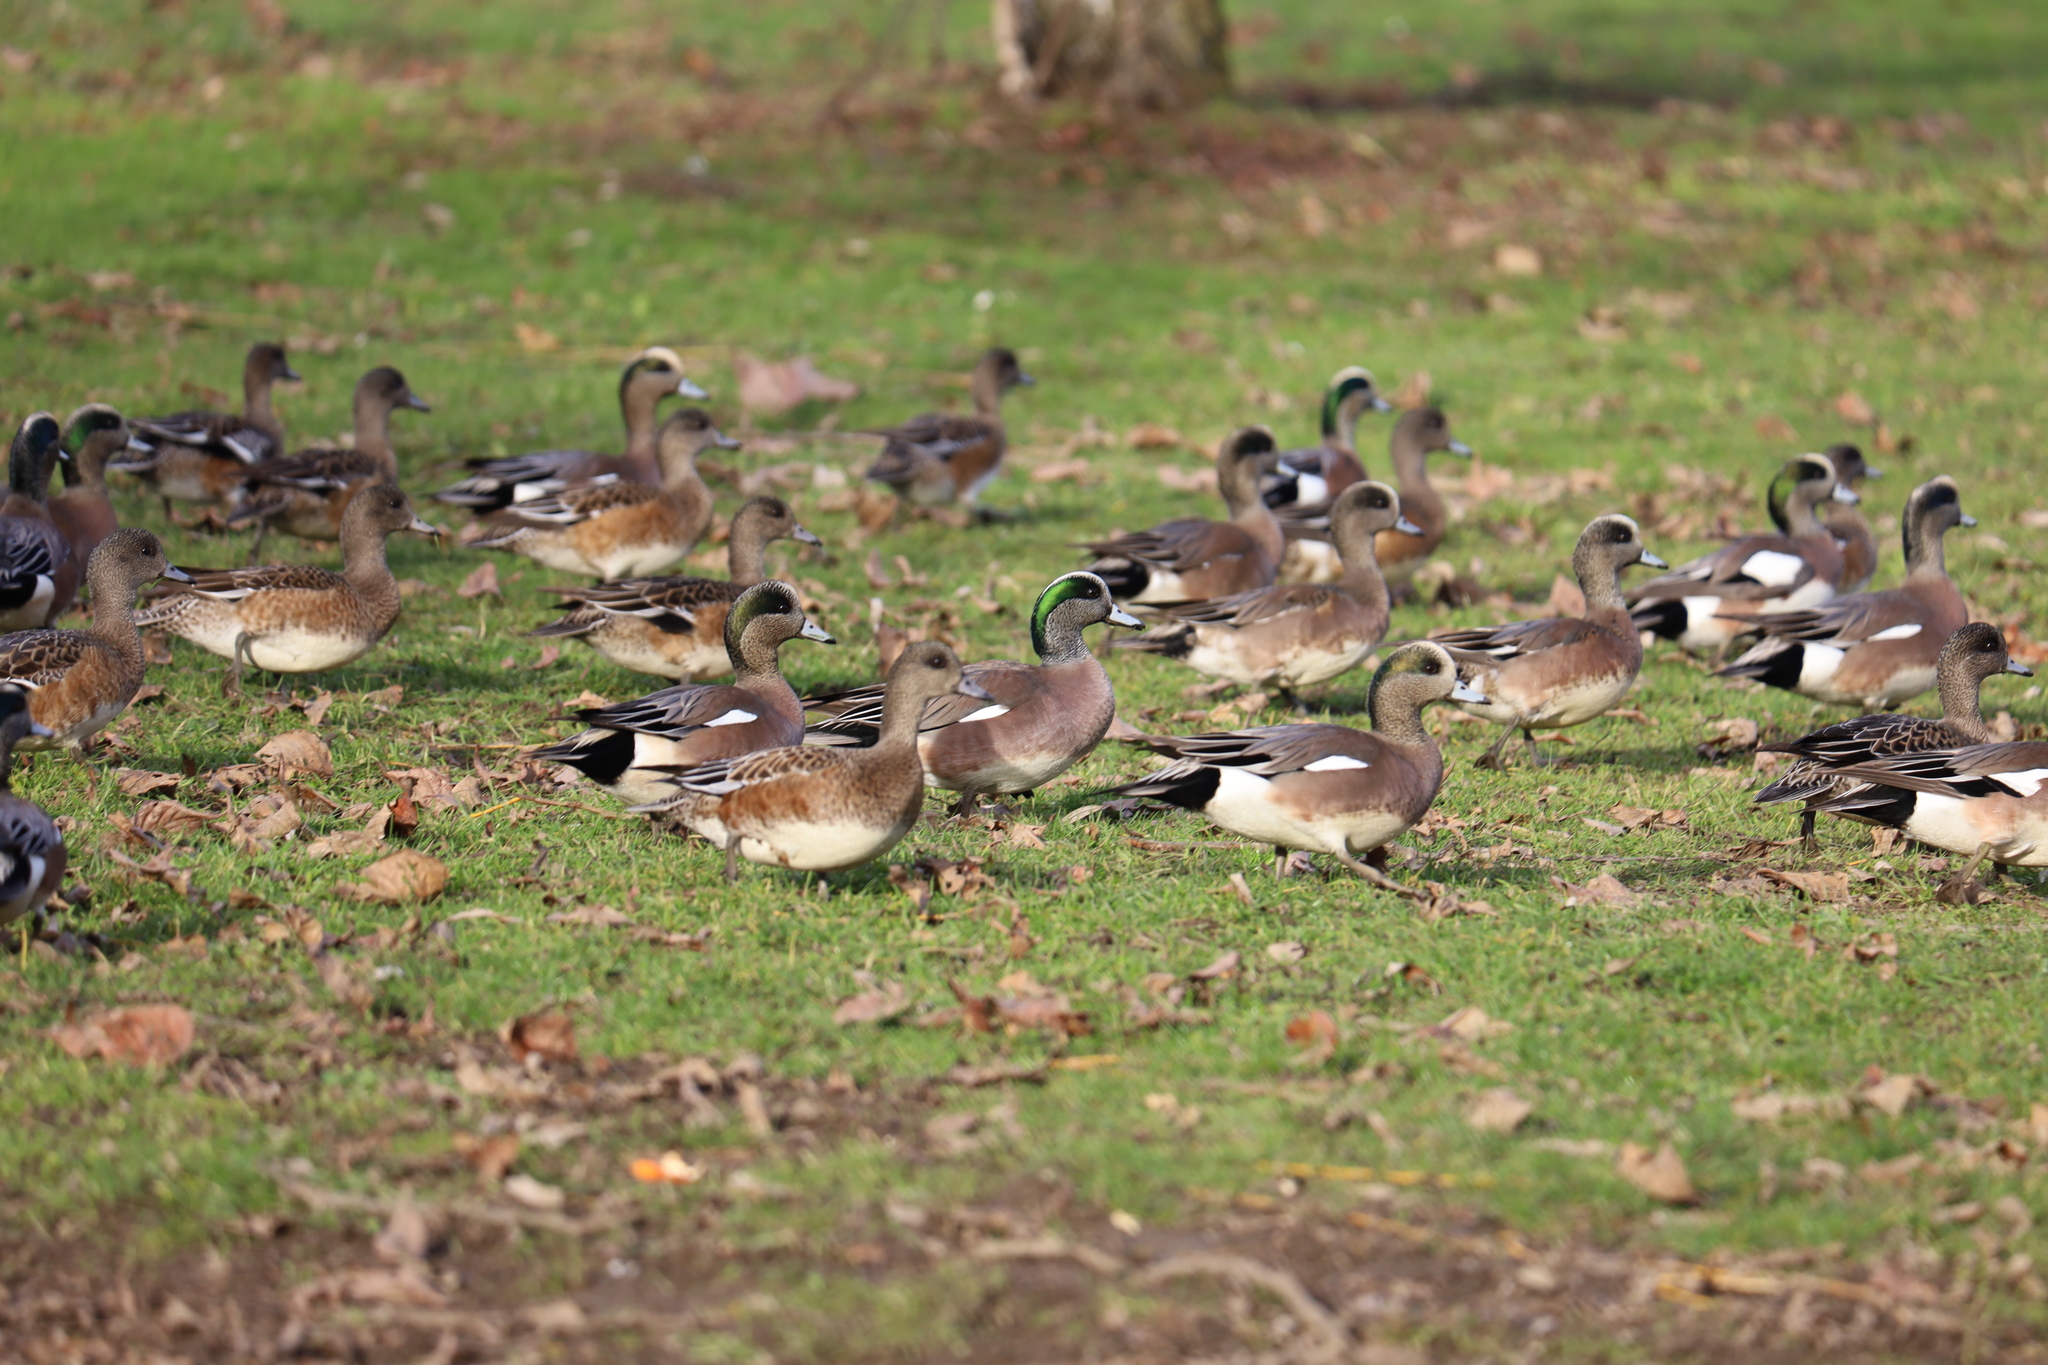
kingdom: Animalia
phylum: Chordata
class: Aves
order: Anseriformes
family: Anatidae
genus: Mareca
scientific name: Mareca americana
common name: American wigeon
